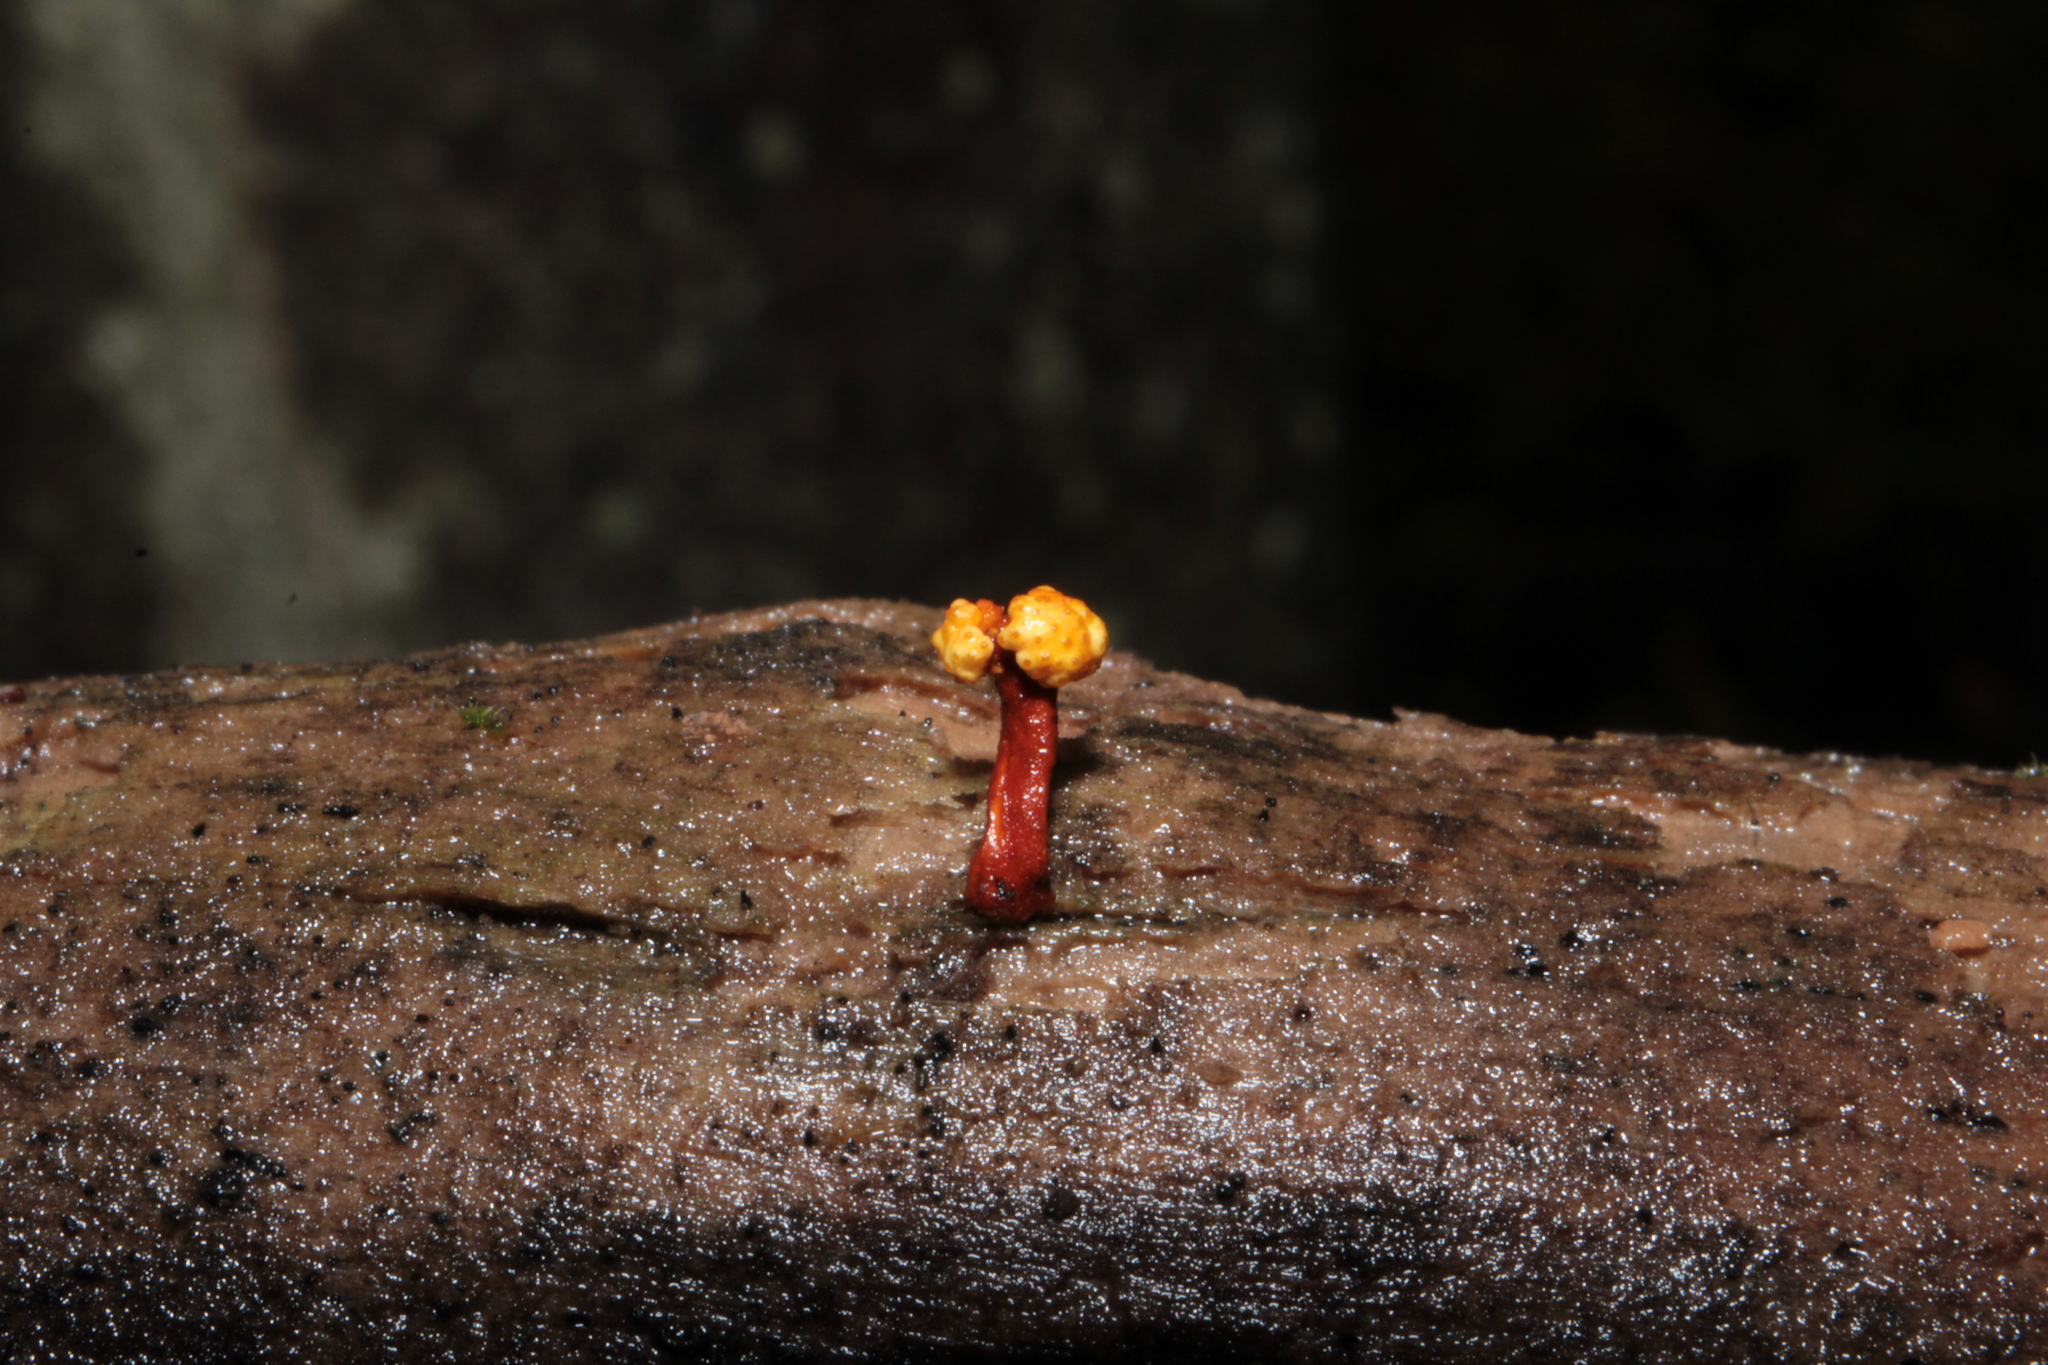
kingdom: Fungi
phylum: Ascomycota
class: Sordariomycetes
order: Hypocreales
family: Ophiocordycipitaceae
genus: Ophiocordyceps
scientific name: Ophiocordyceps variabilis
